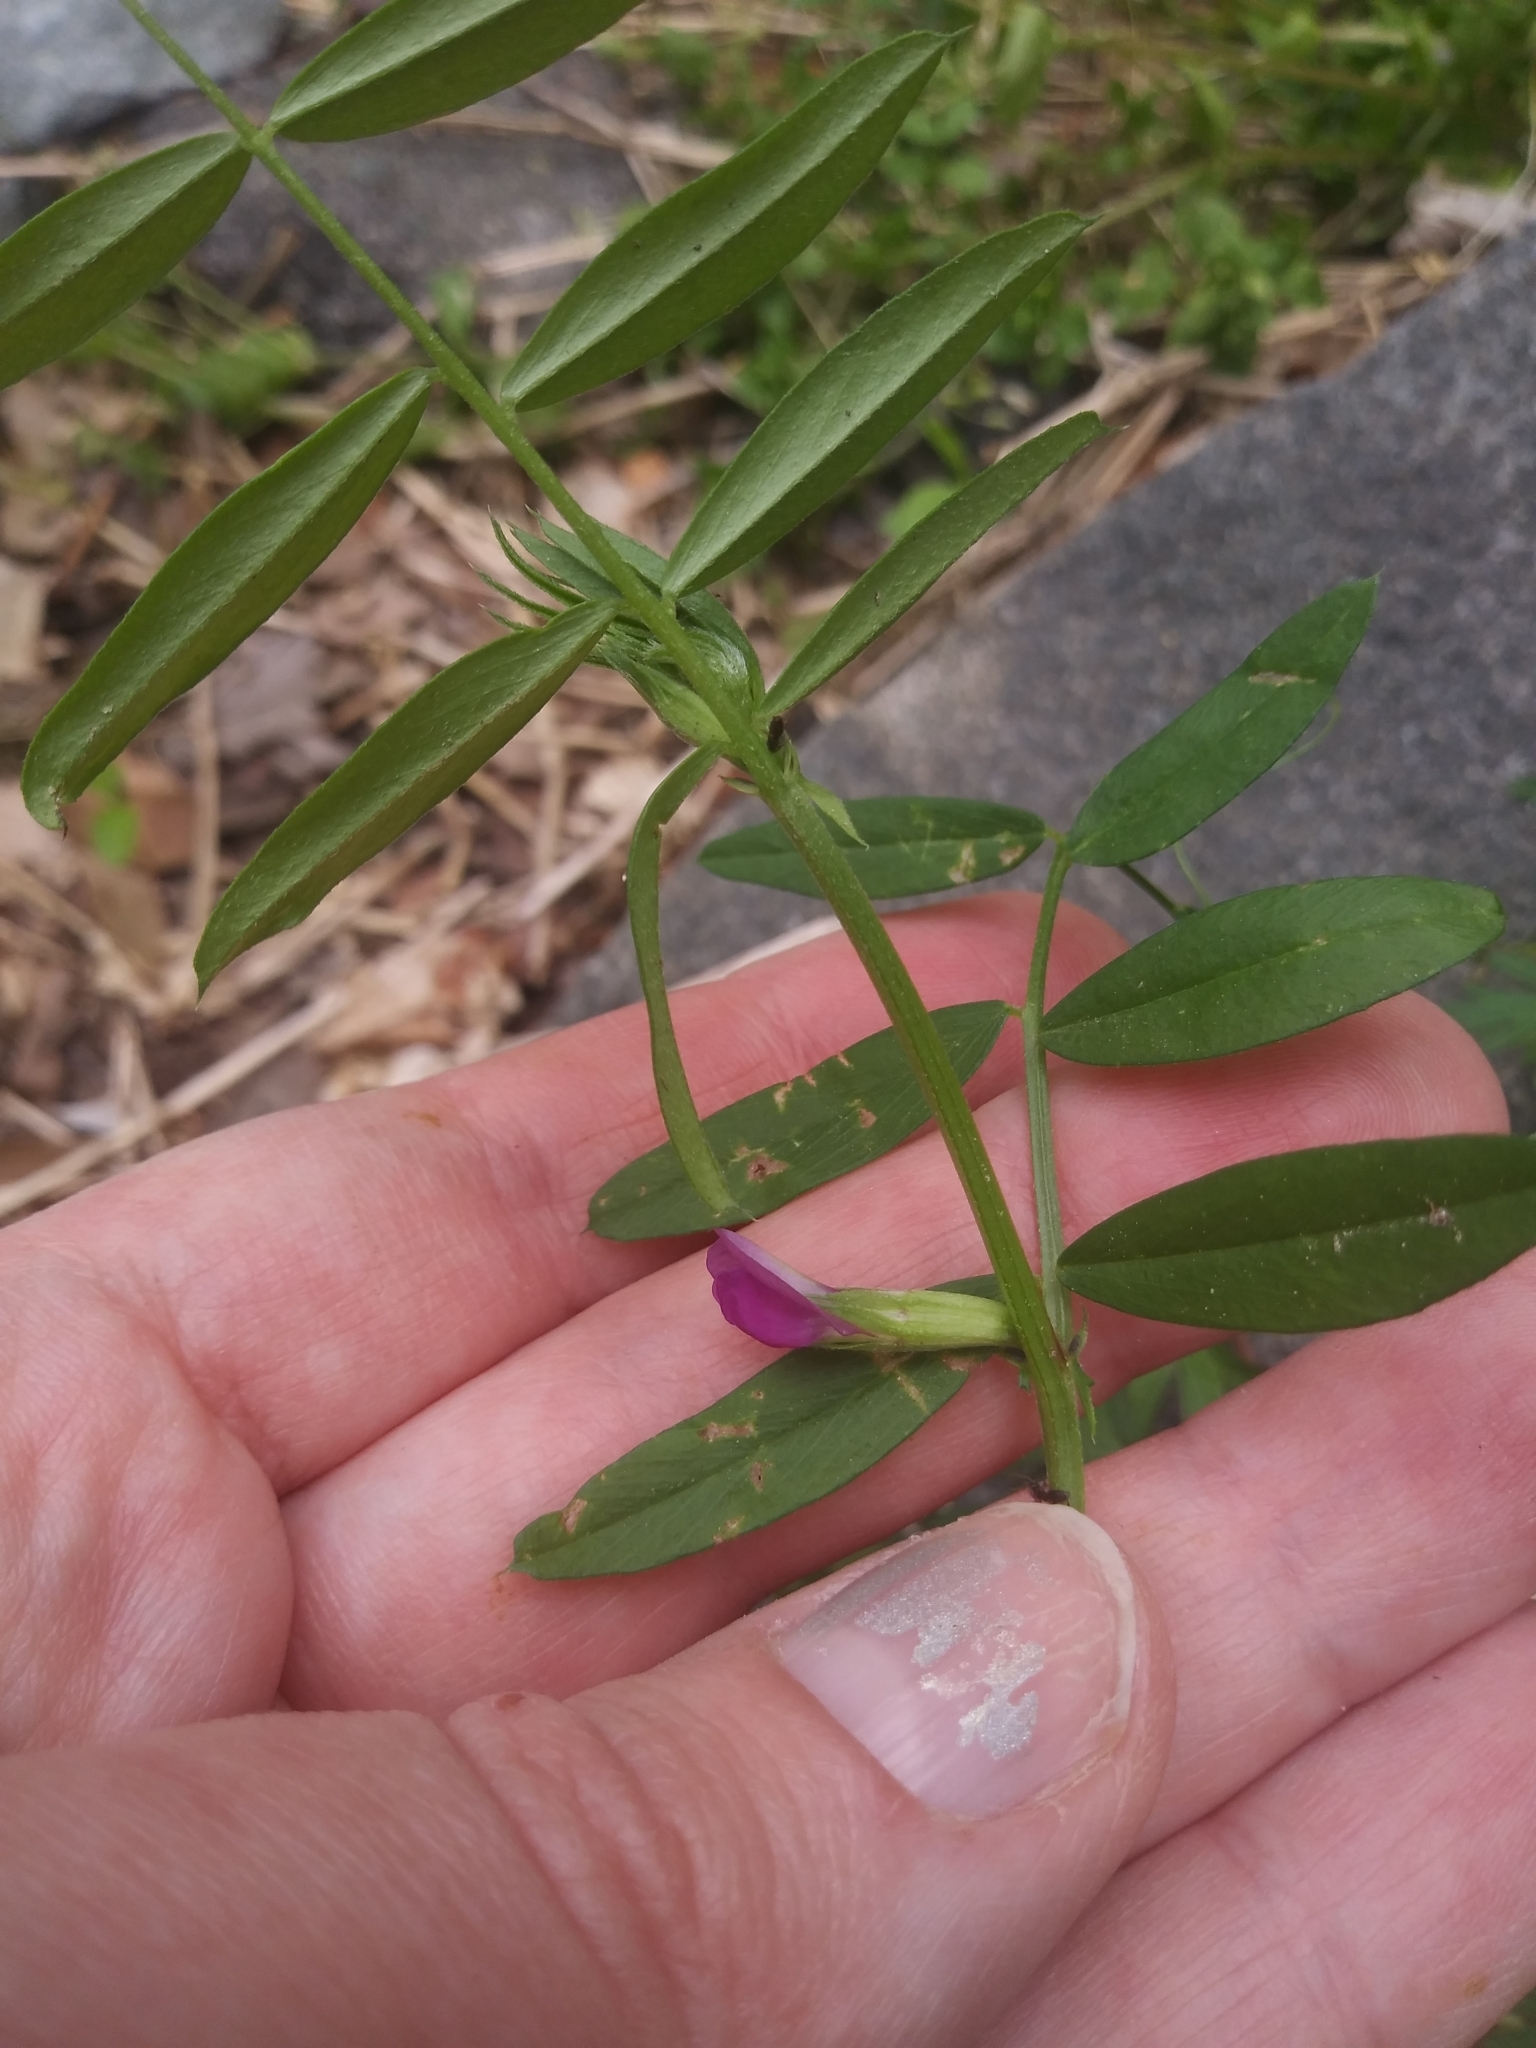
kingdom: Plantae
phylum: Tracheophyta
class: Magnoliopsida
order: Fabales
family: Fabaceae
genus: Vicia
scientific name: Vicia sativa
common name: Garden vetch
